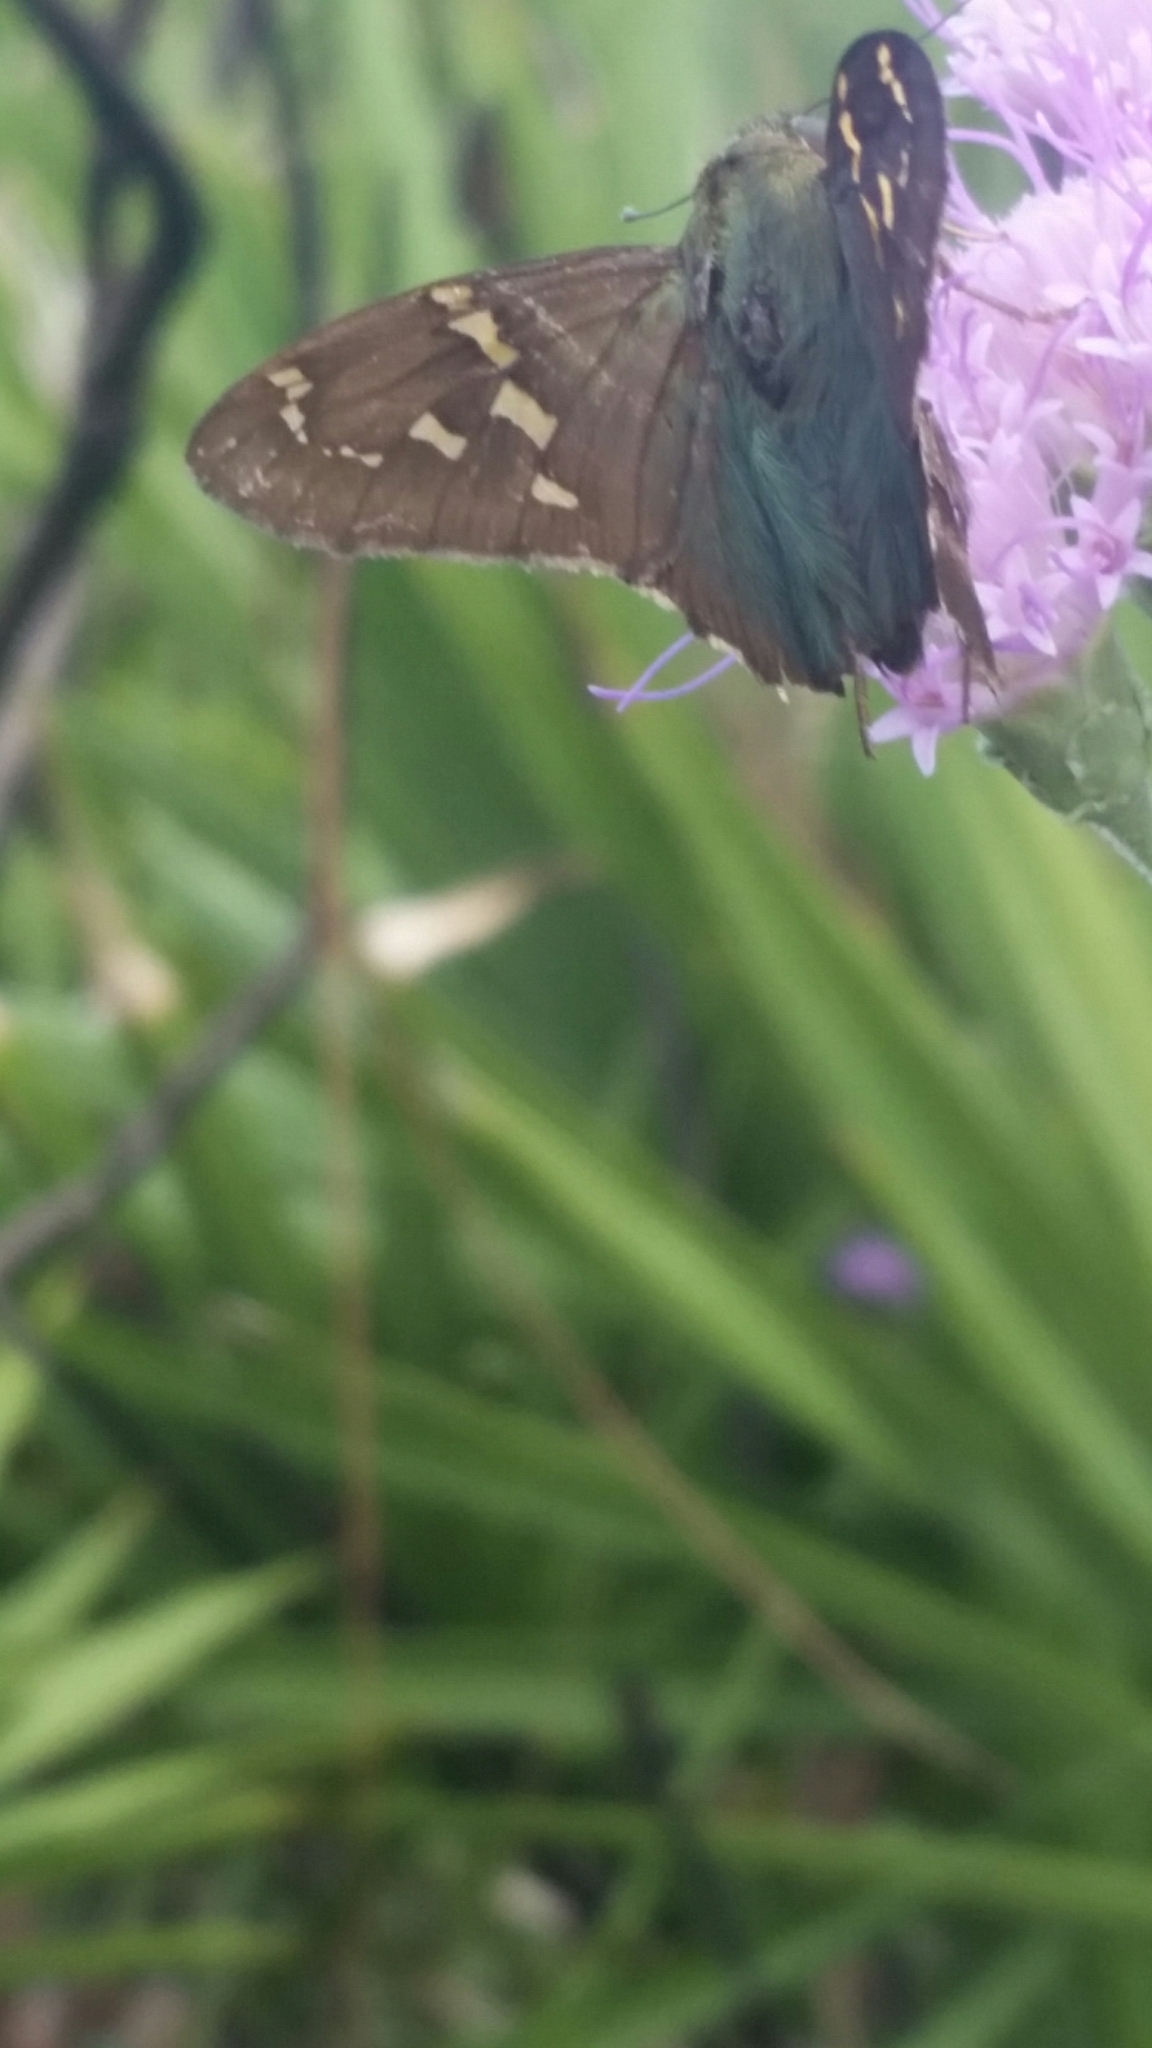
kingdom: Animalia
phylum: Arthropoda
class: Insecta
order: Lepidoptera
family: Hesperiidae
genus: Urbanus
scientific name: Urbanus proteus
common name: Long-tailed skipper
